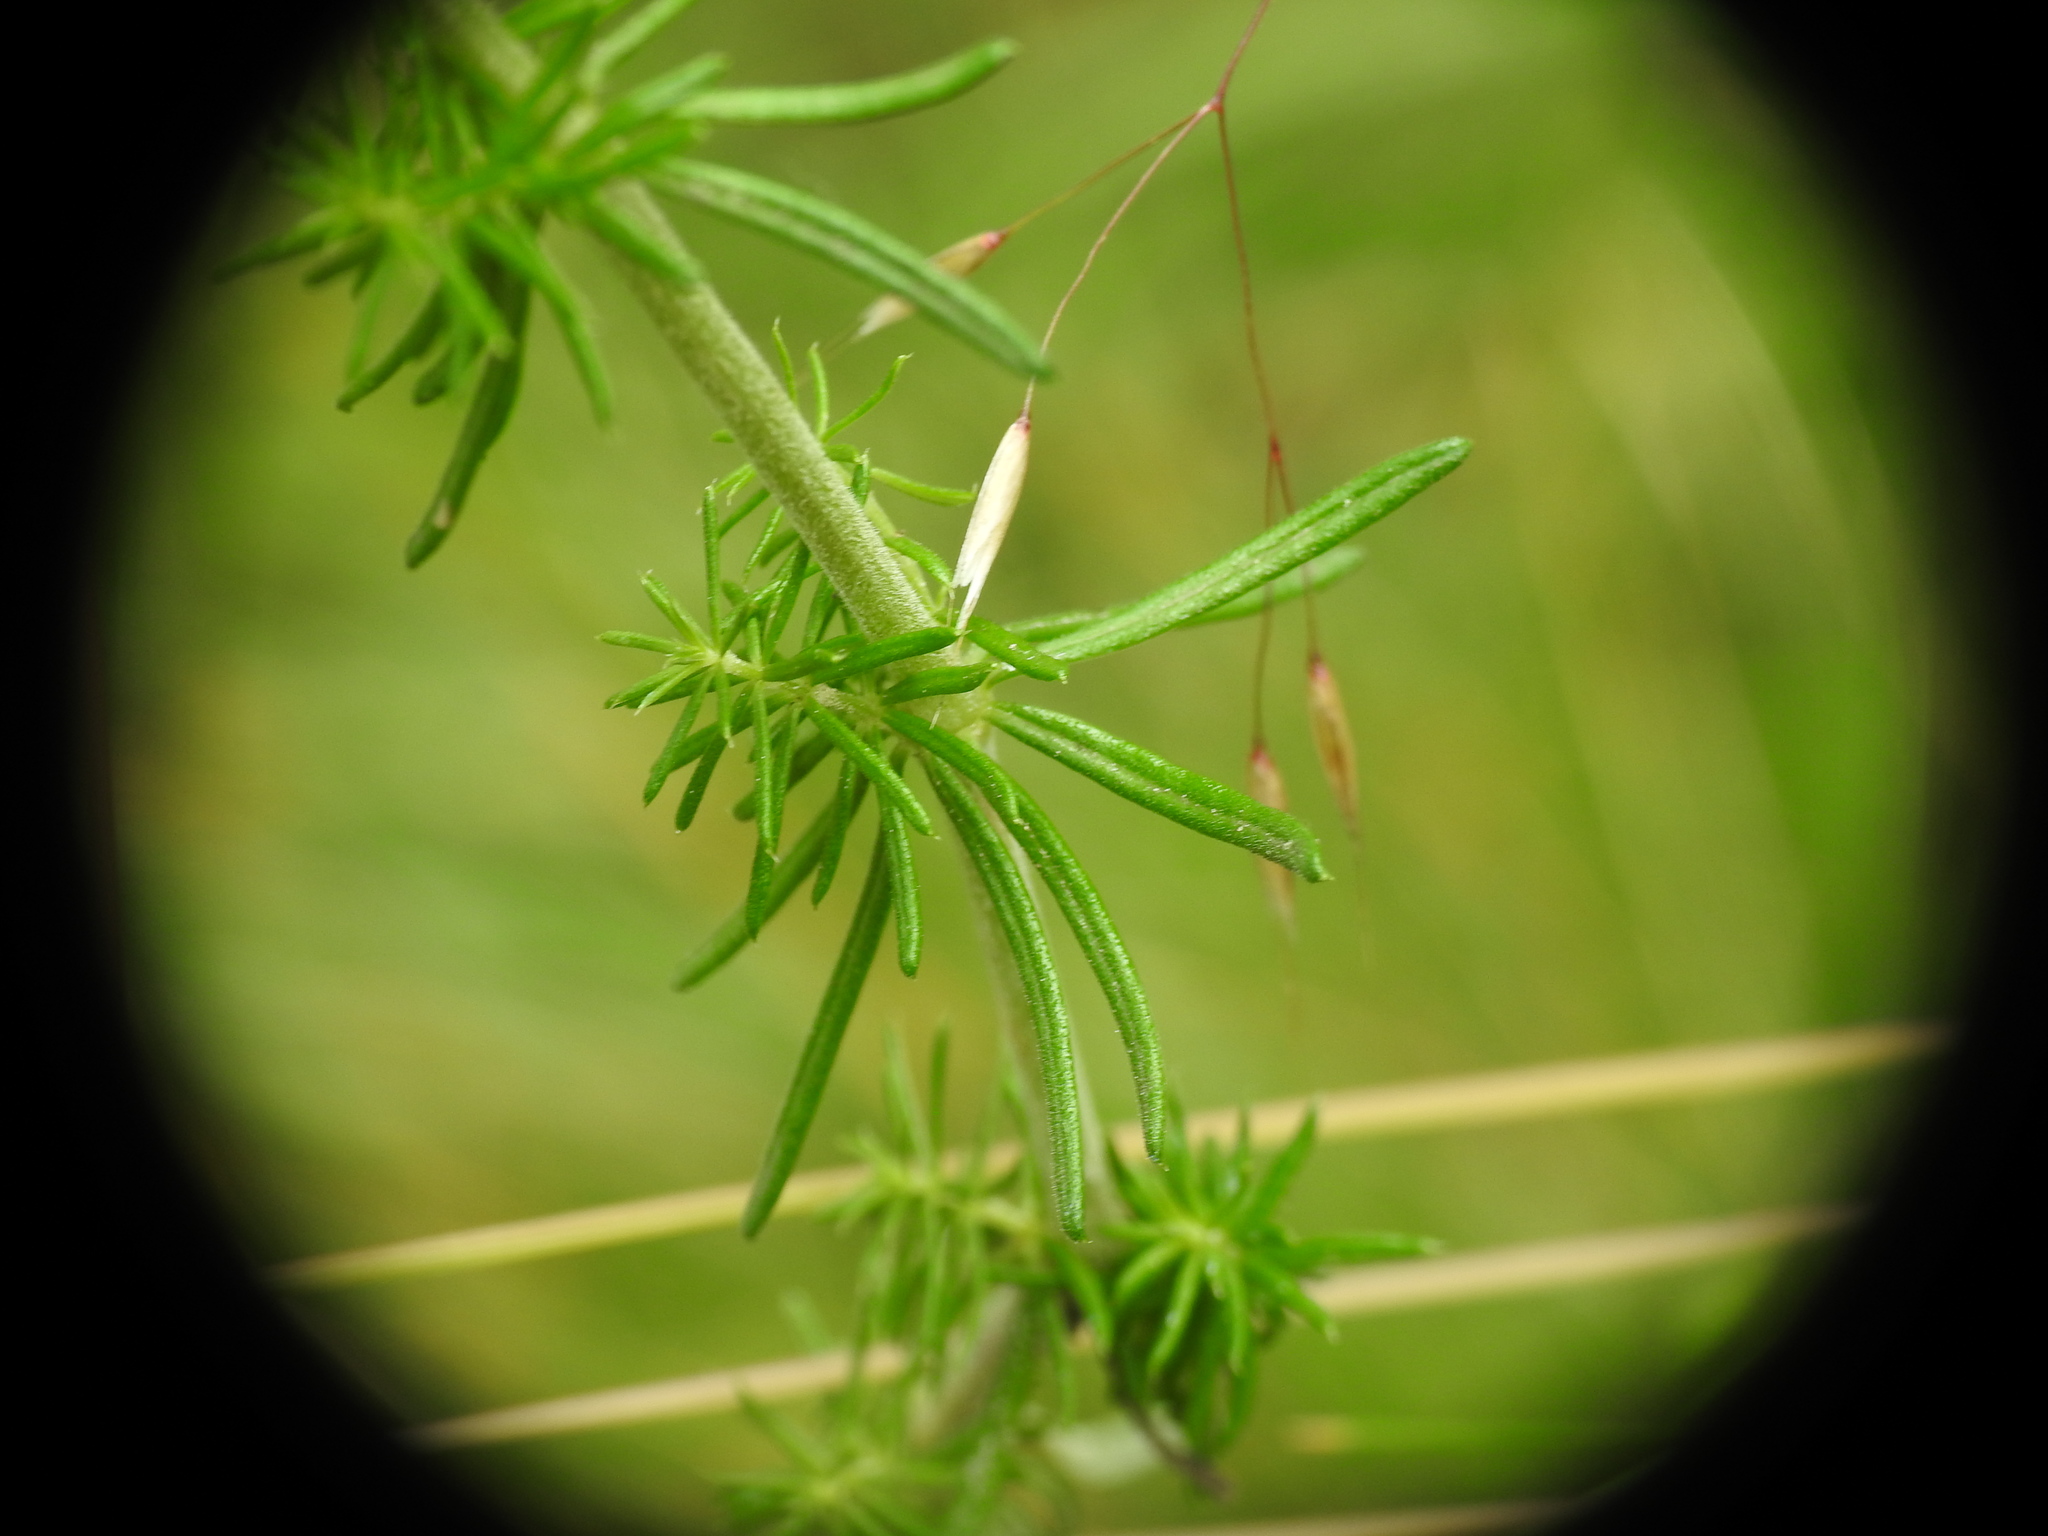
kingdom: Plantae
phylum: Tracheophyta
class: Magnoliopsida
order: Gentianales
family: Rubiaceae
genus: Galium
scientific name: Galium verum
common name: Lady's bedstraw
